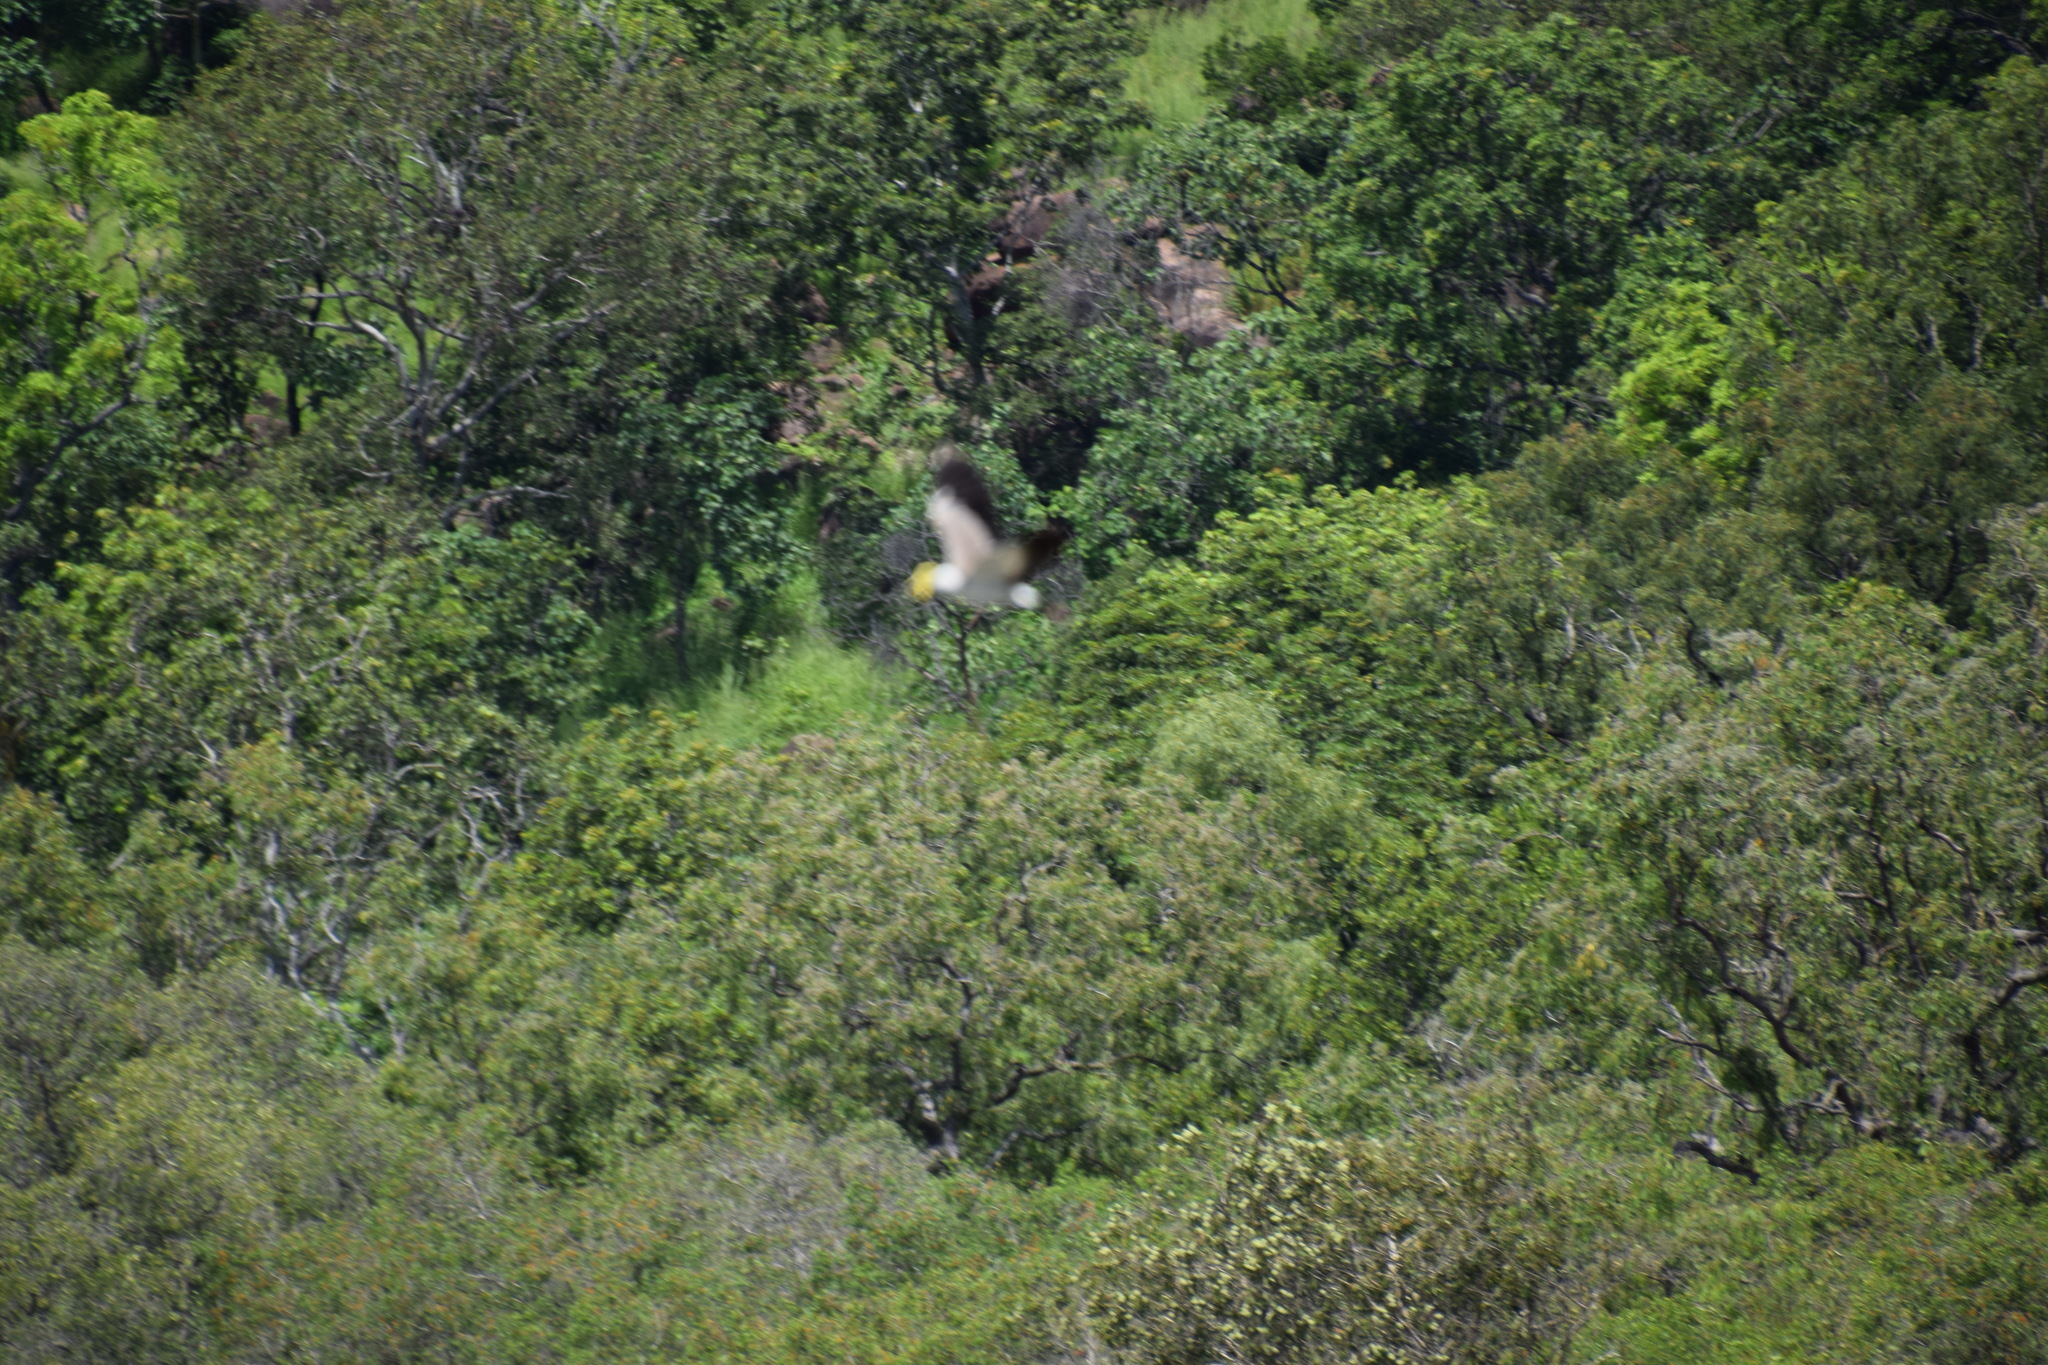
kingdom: Animalia
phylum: Chordata
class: Aves
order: Charadriiformes
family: Charadriidae
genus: Vanellus
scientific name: Vanellus miles
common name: Masked lapwing
